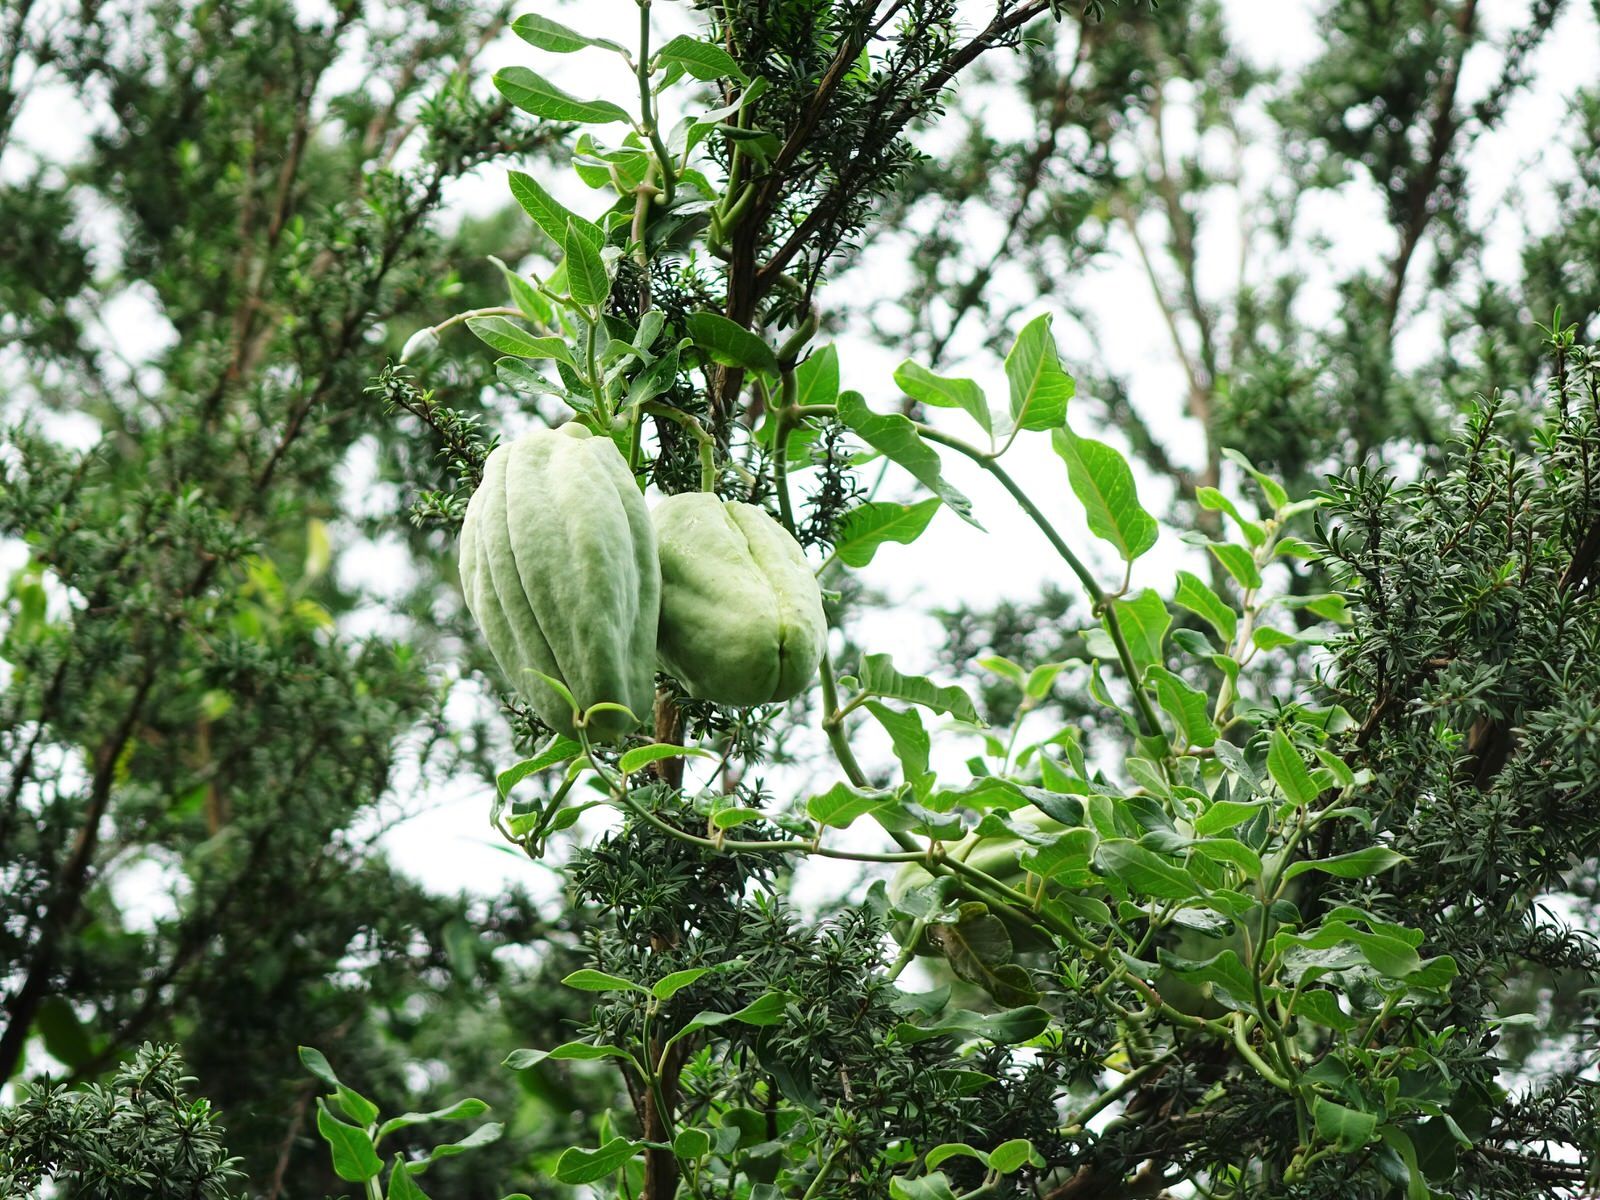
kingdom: Plantae
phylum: Tracheophyta
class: Magnoliopsida
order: Gentianales
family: Apocynaceae
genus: Araujia
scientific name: Araujia sericifera
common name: White bladderflower
